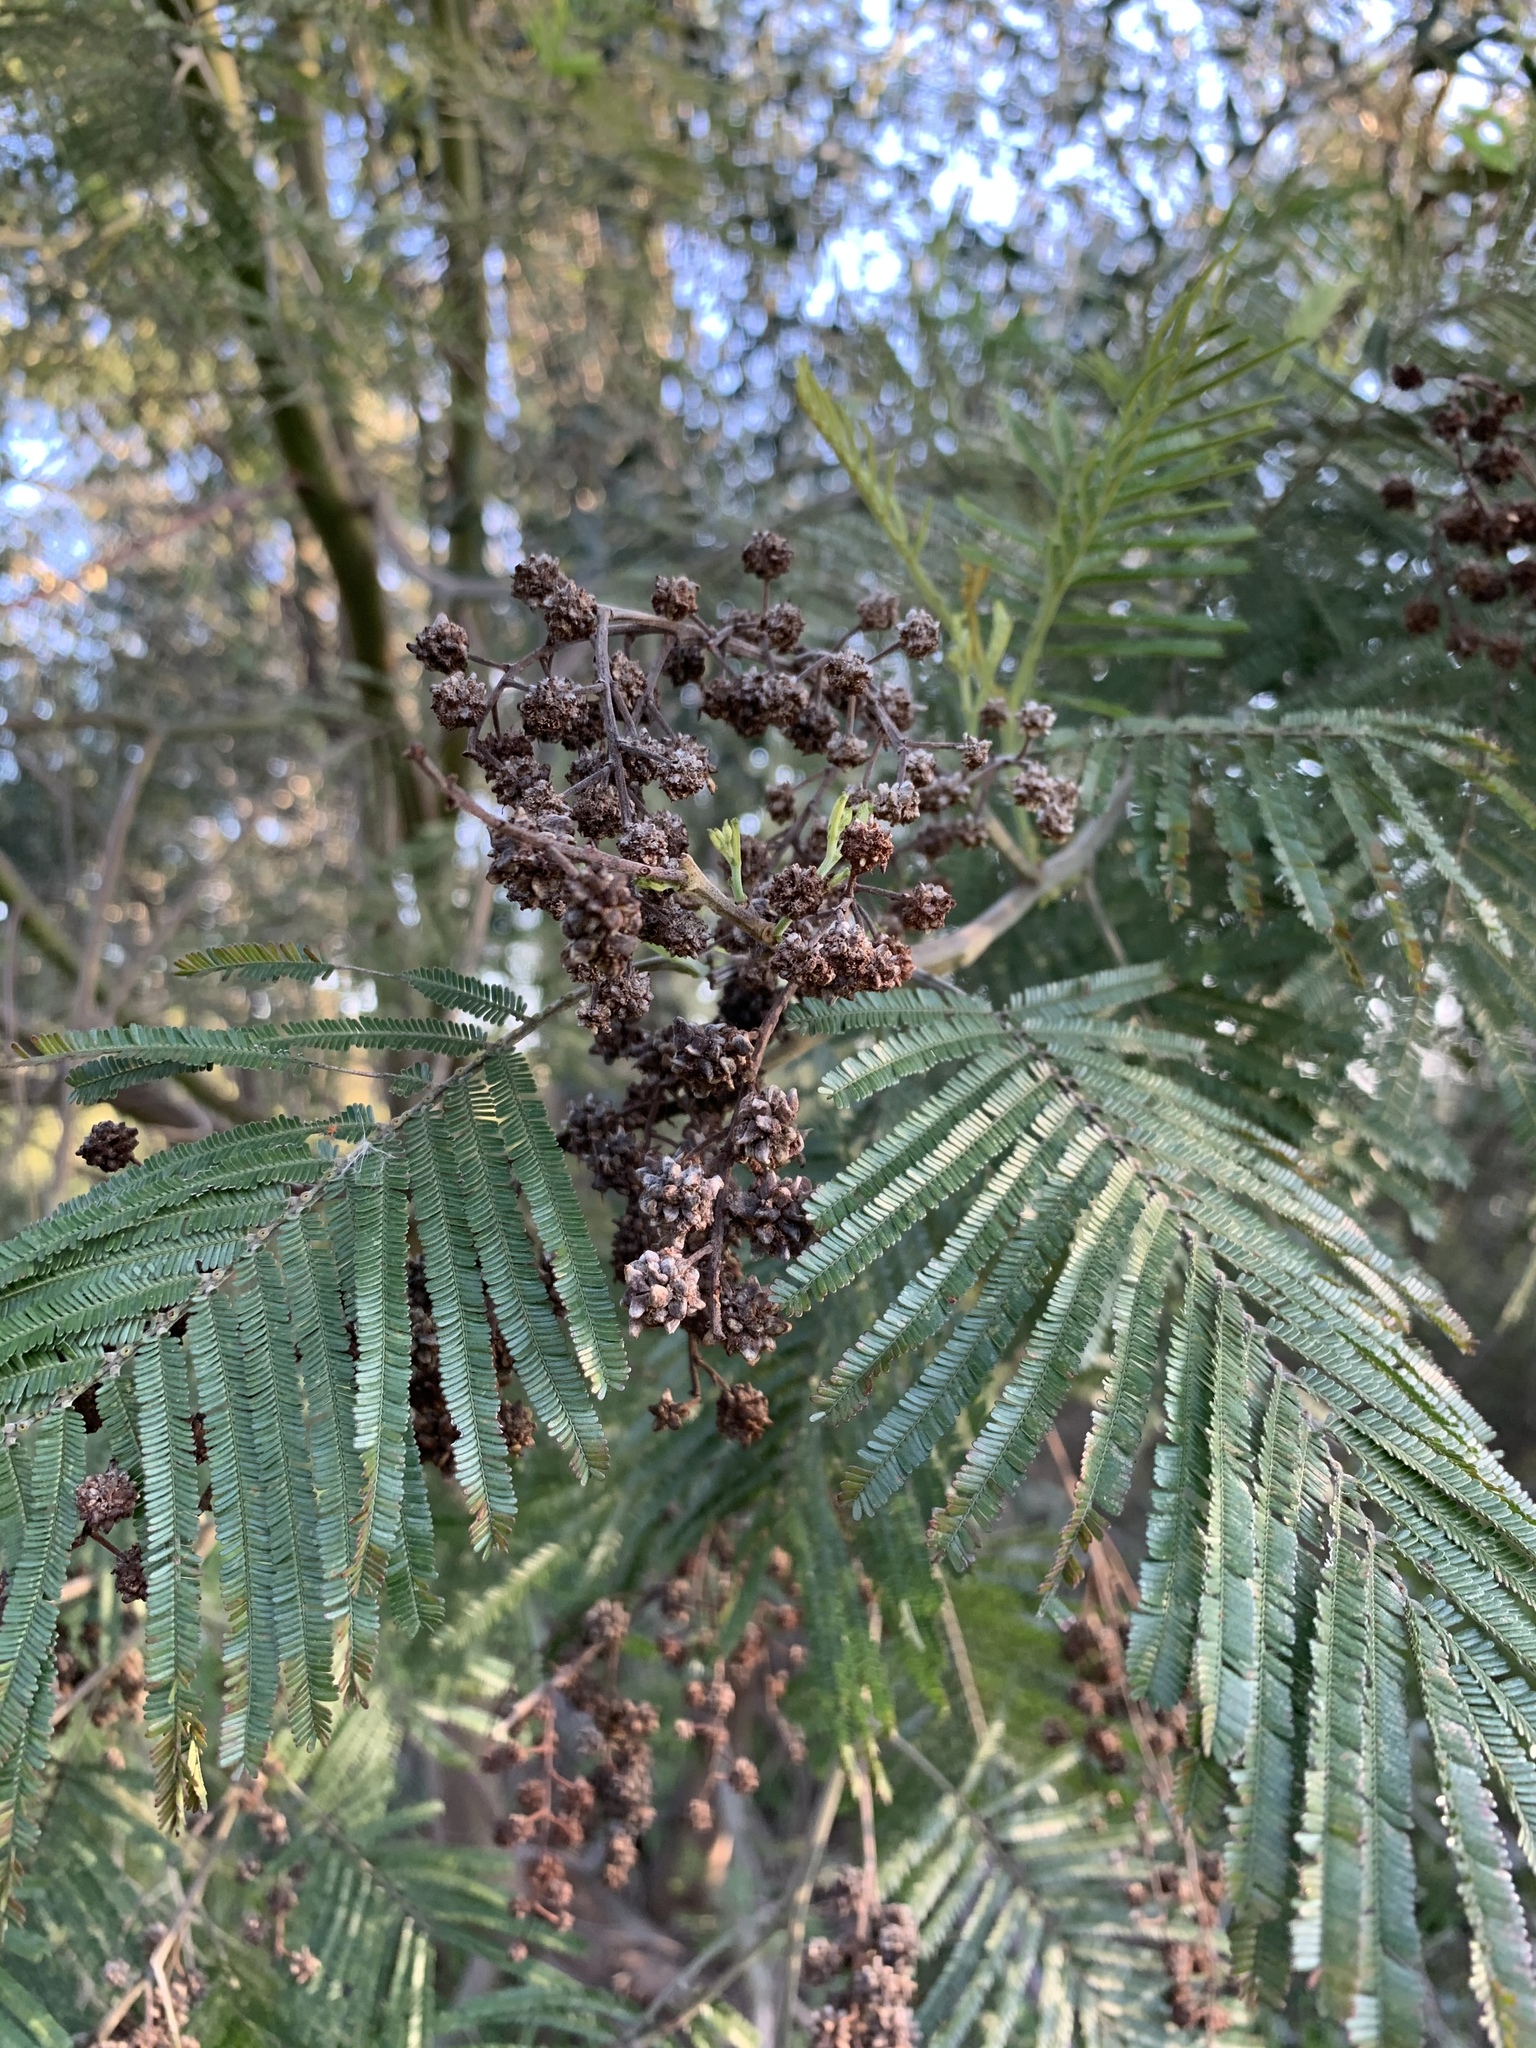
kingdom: Animalia
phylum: Arthropoda
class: Insecta
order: Diptera
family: Cecidomyiidae
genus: Dasineura
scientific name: Dasineura rubiformis
